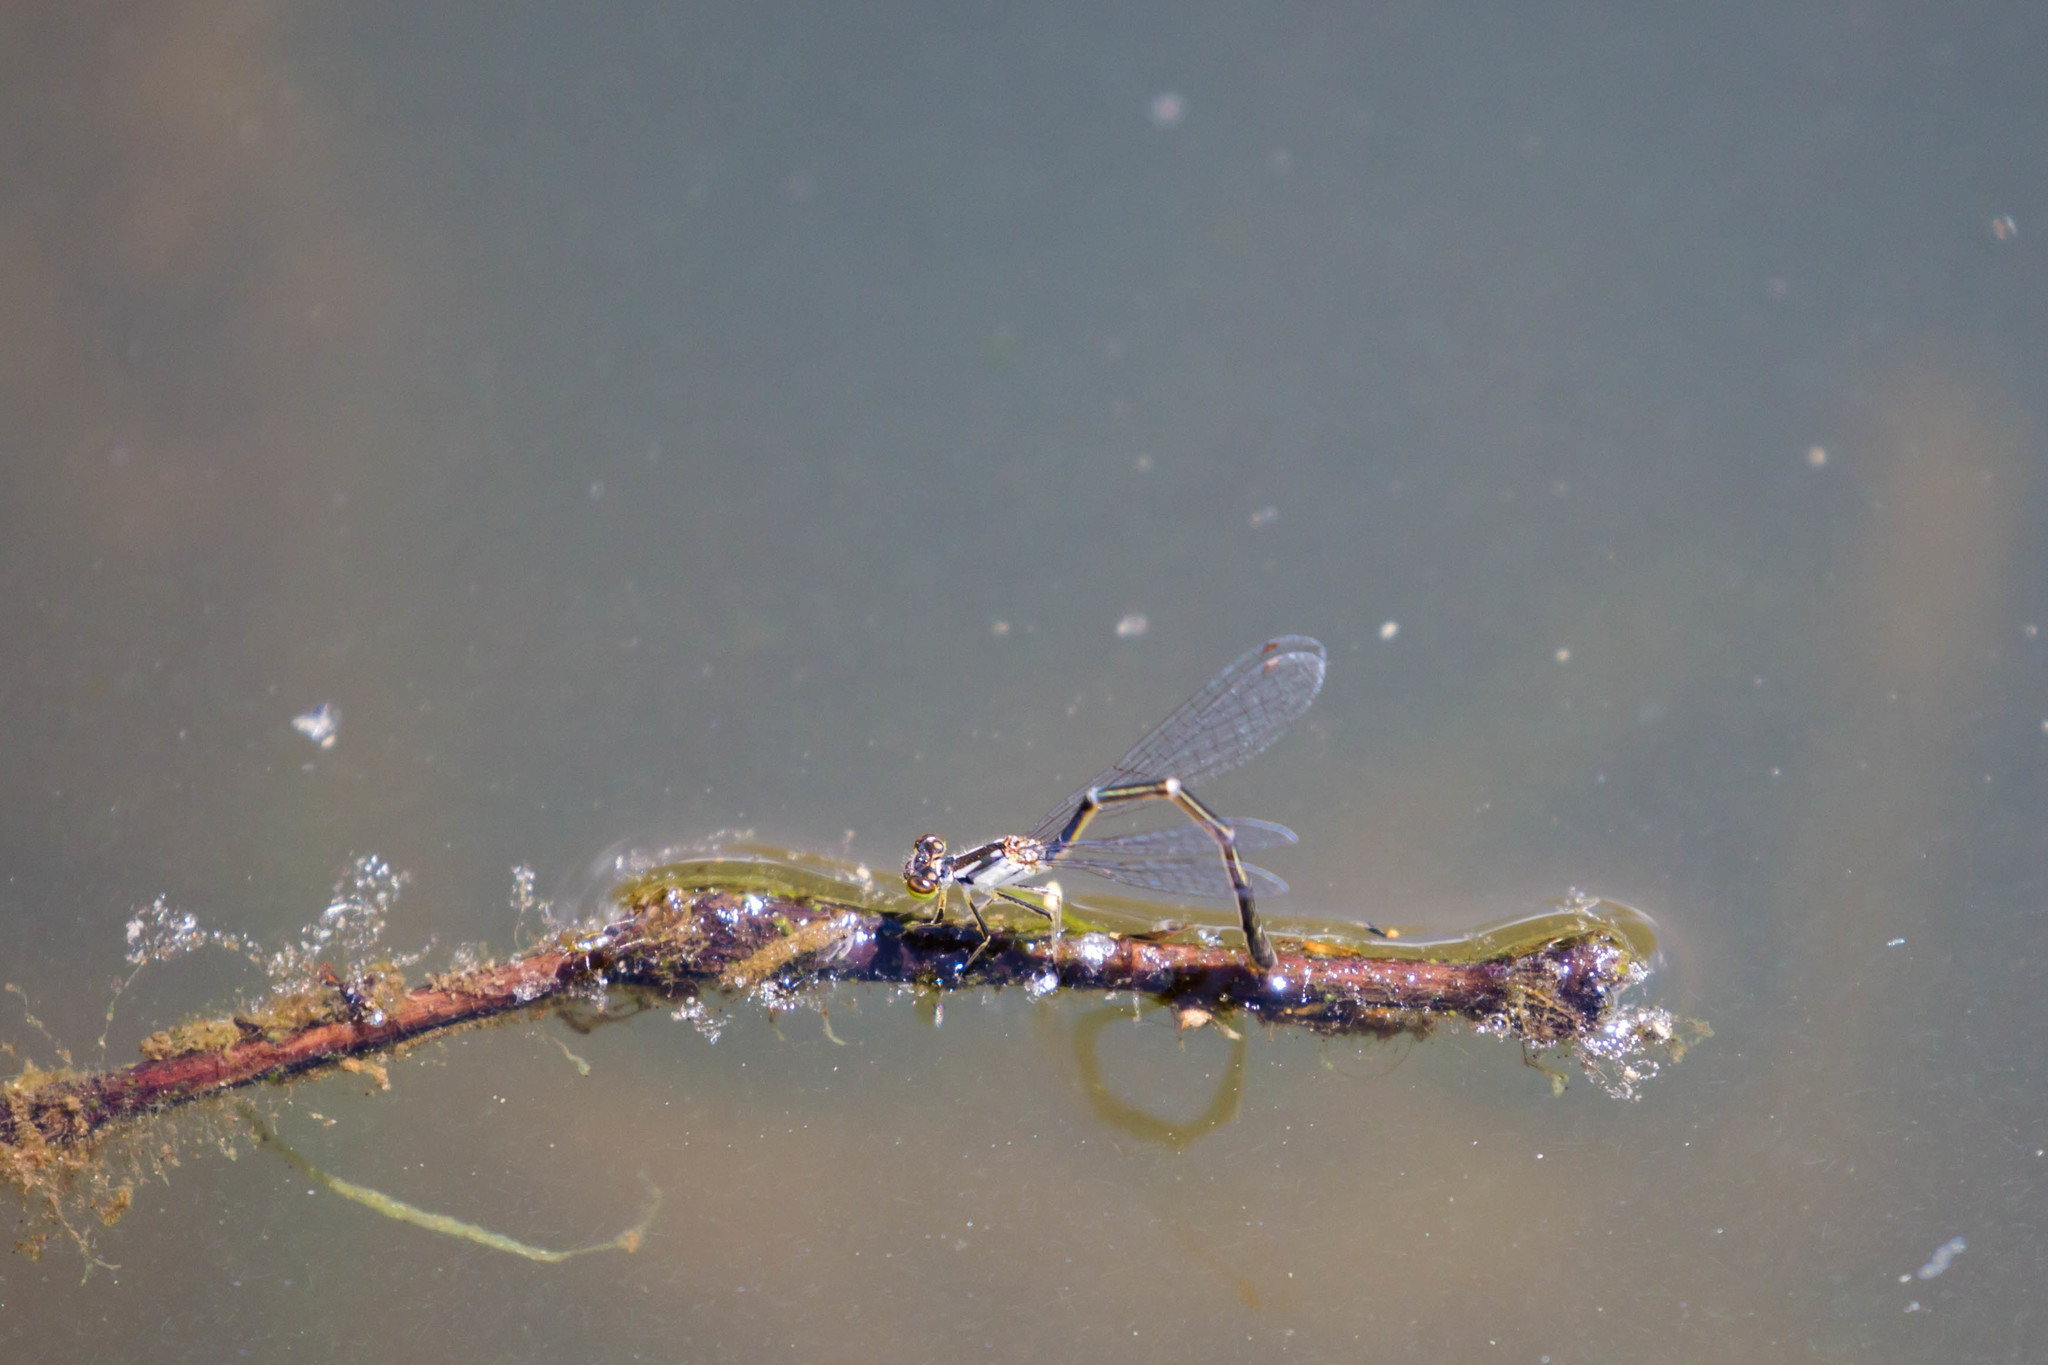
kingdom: Animalia
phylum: Arthropoda
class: Insecta
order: Odonata
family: Coenagrionidae
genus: Ischnura
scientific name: Ischnura posita
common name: Fragile forktail
